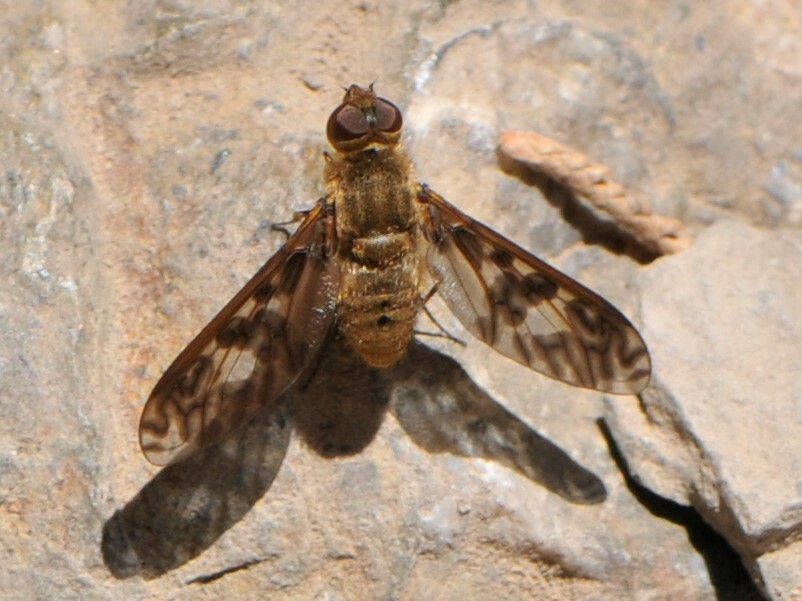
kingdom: Animalia
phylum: Arthropoda
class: Insecta
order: Diptera
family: Bombyliidae
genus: Dipalta
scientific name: Dipalta serpentina
